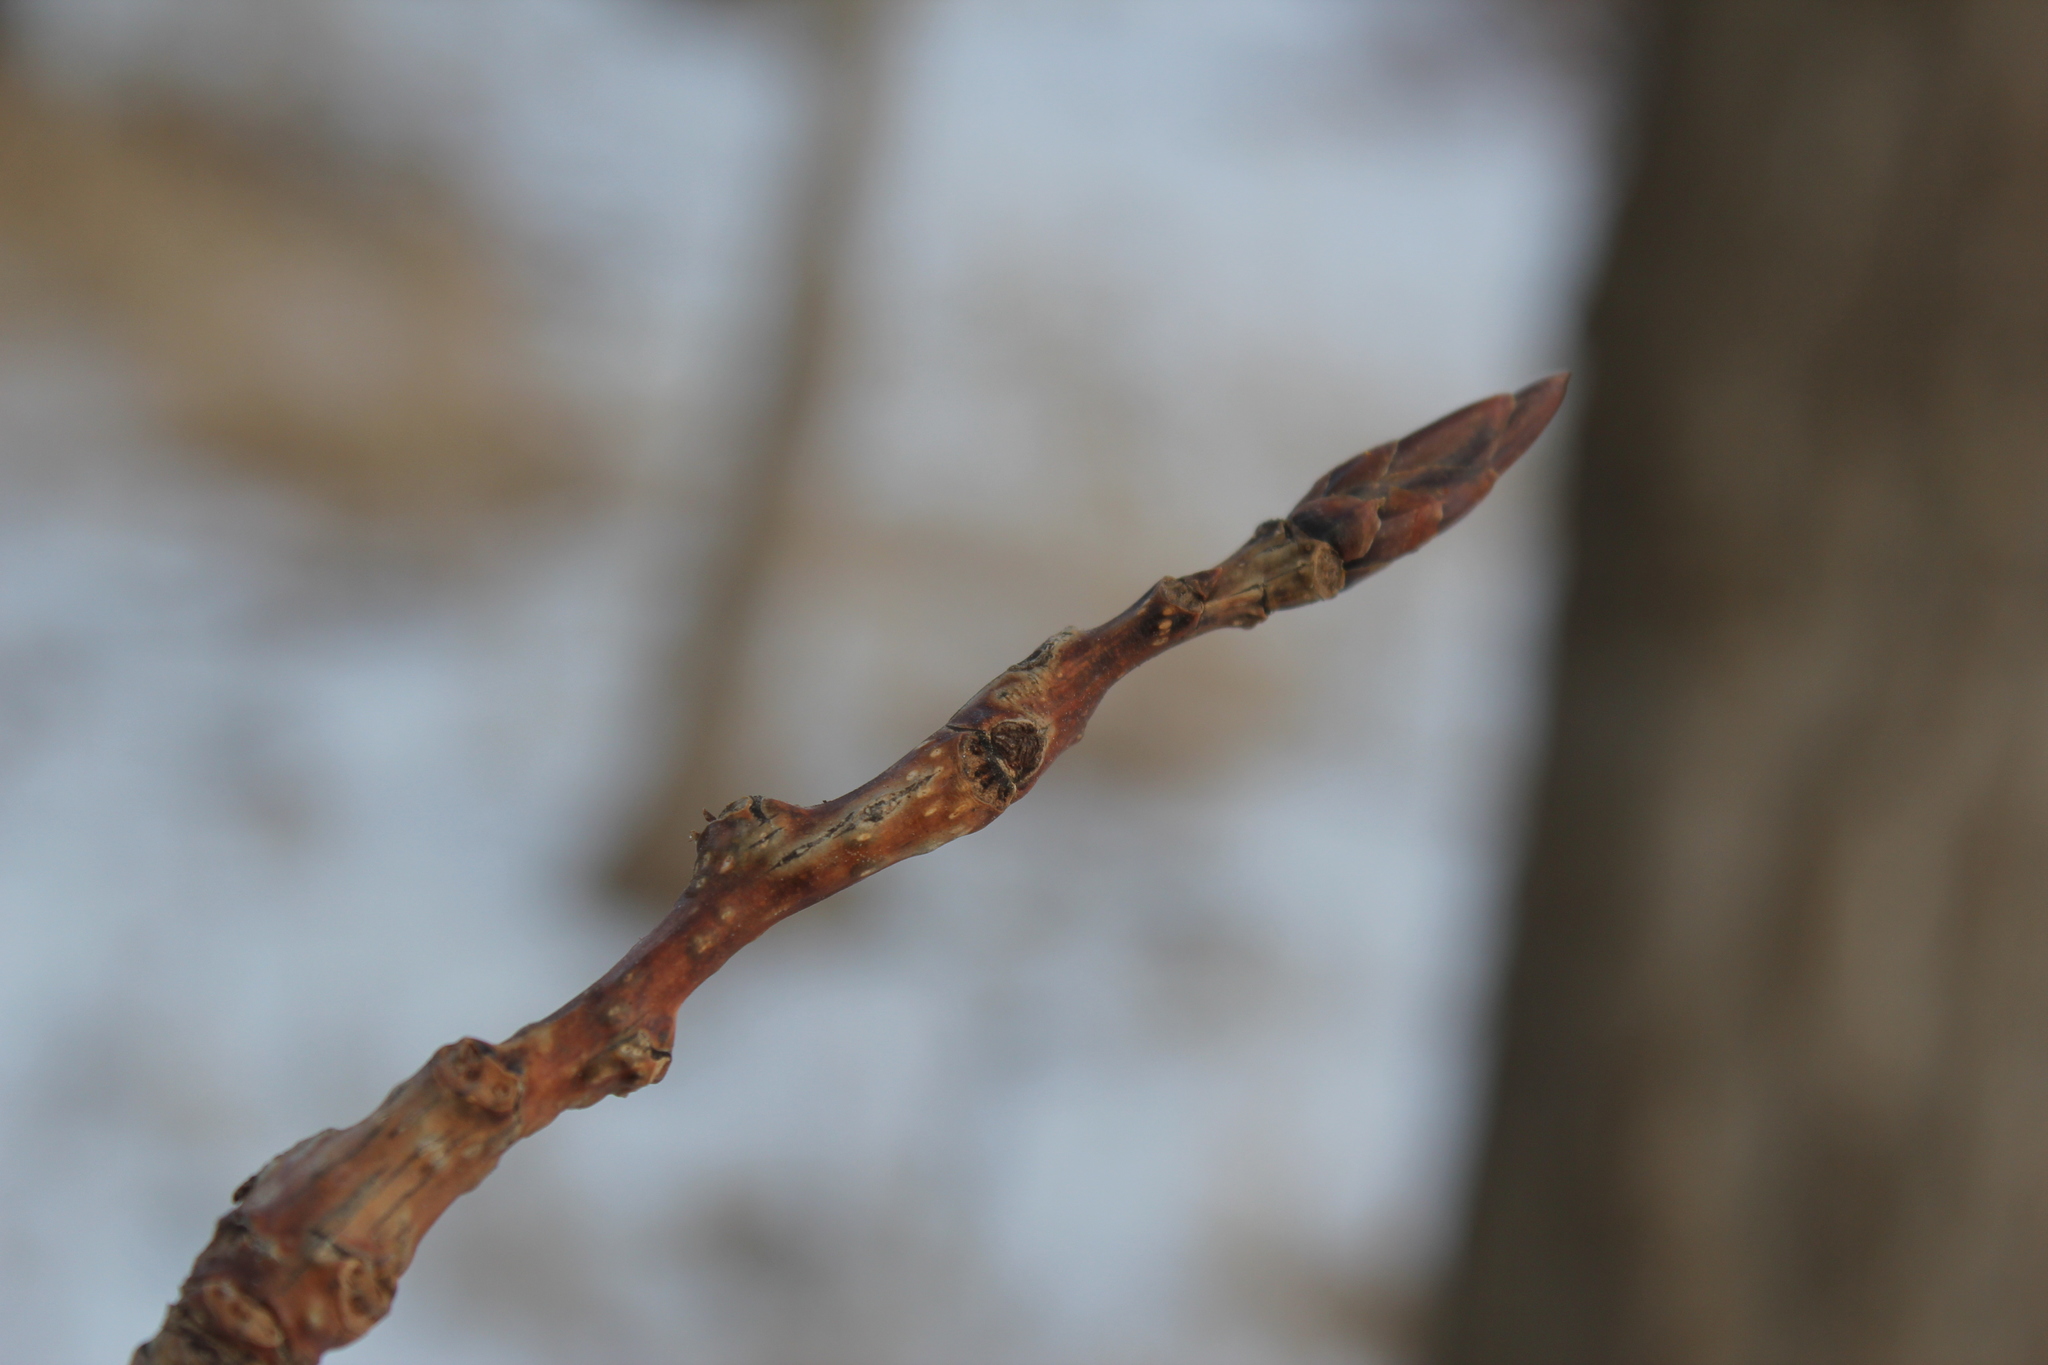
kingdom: Plantae
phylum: Tracheophyta
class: Magnoliopsida
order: Malpighiales
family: Salicaceae
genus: Populus
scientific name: Populus deltoides
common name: Eastern cottonwood
